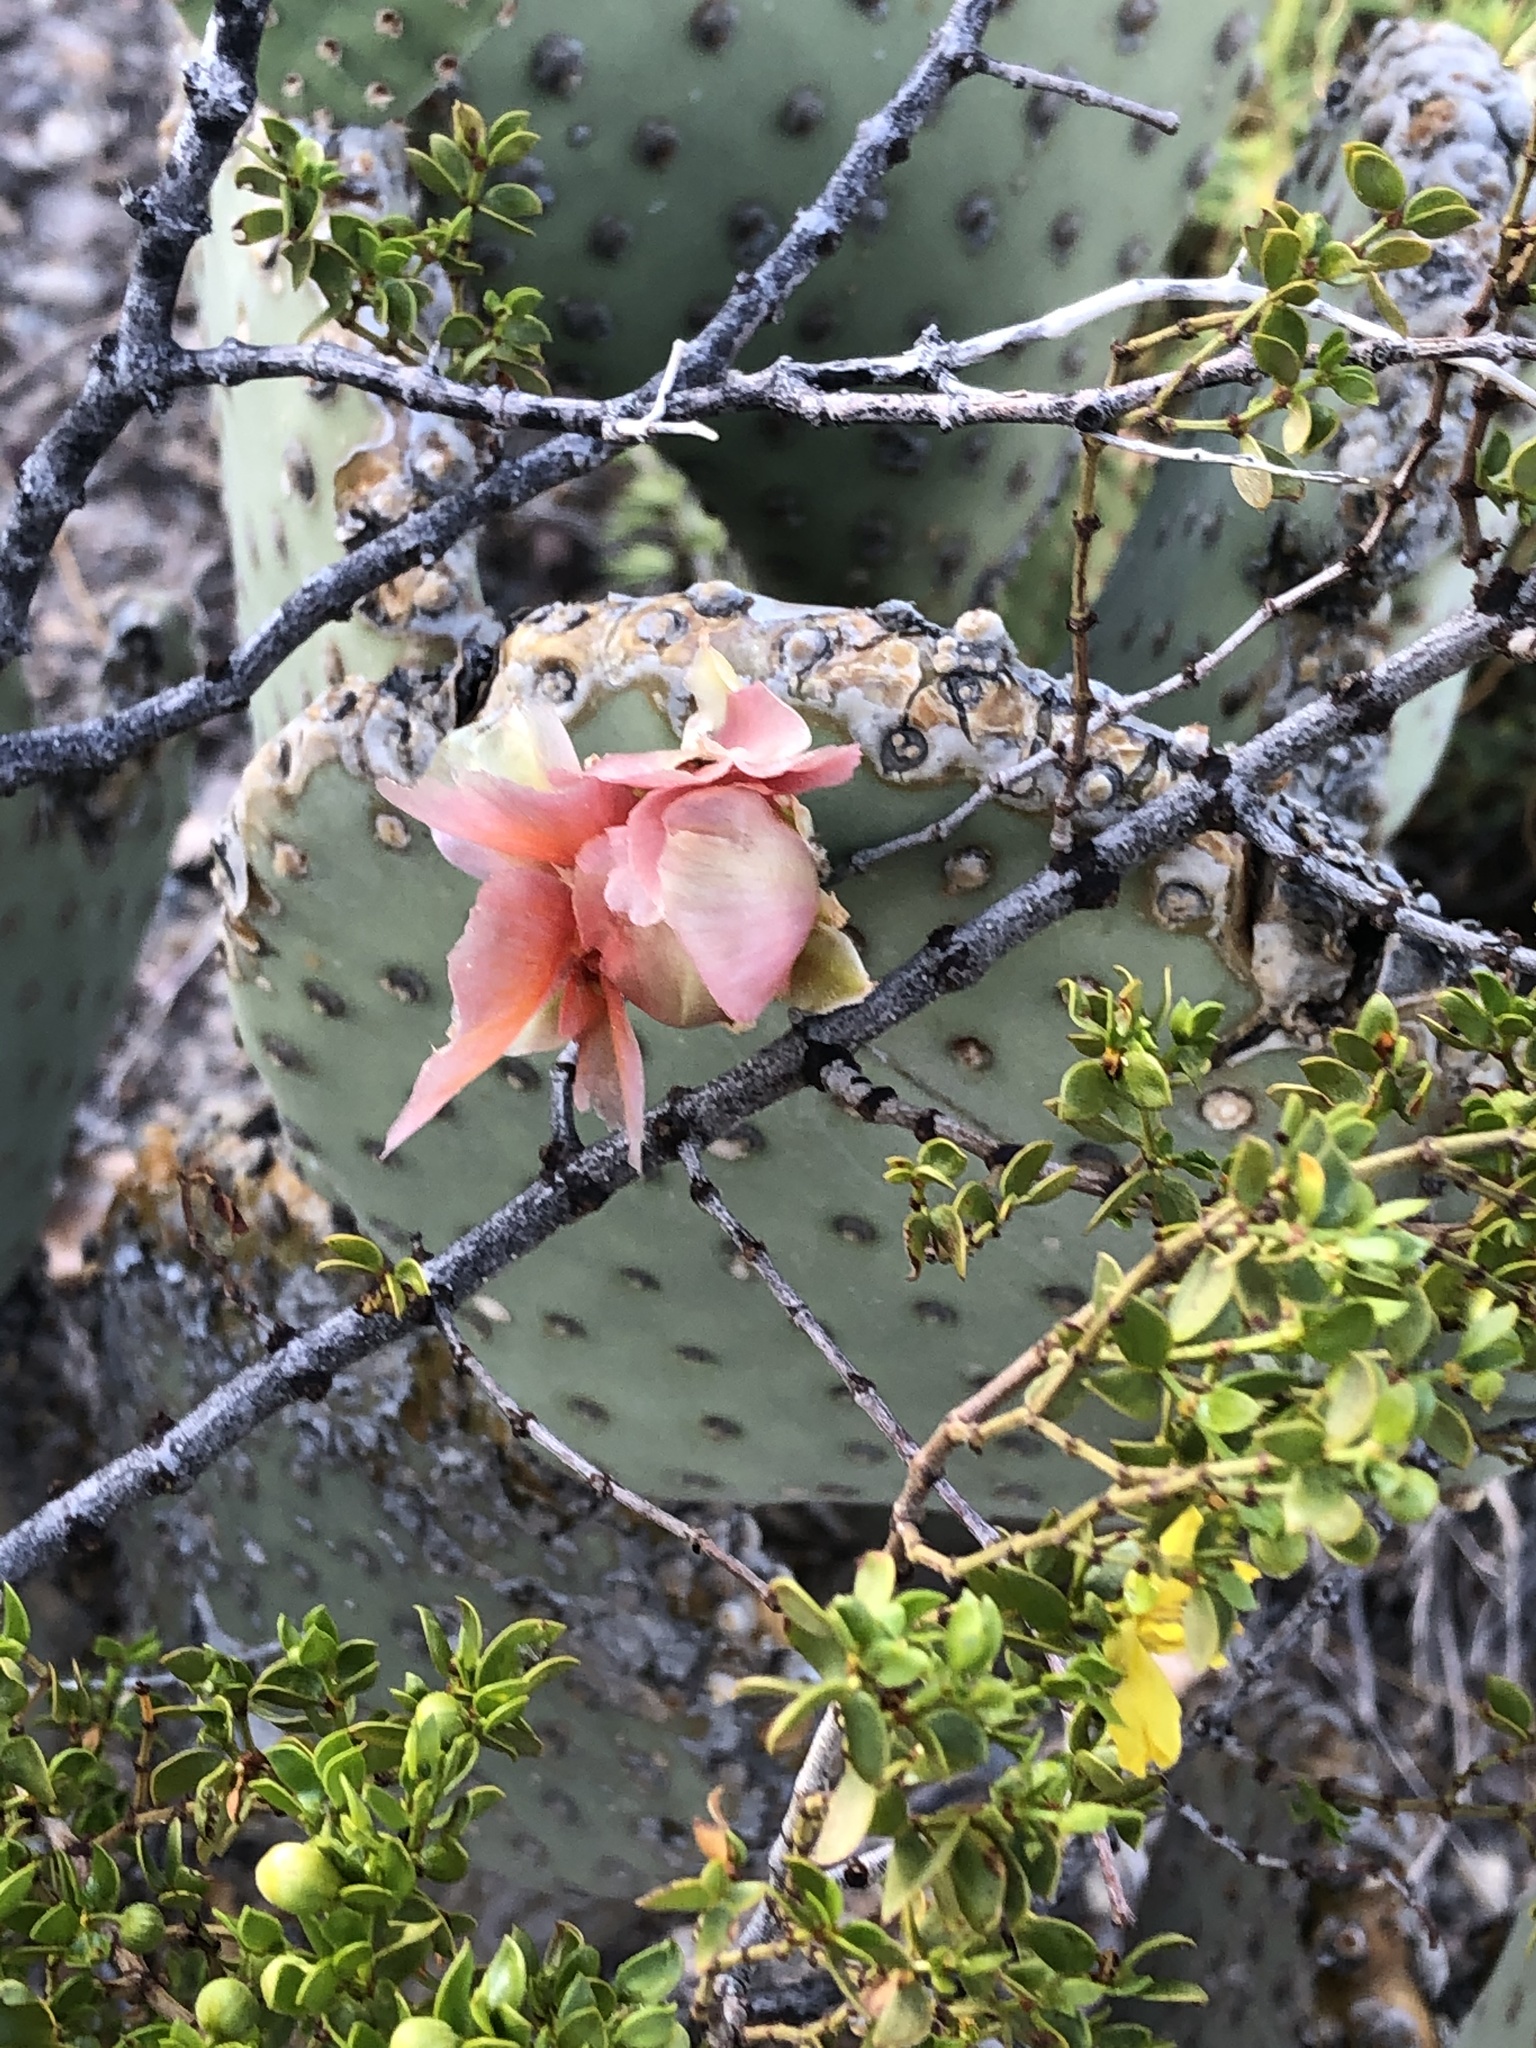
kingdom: Plantae
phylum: Tracheophyta
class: Magnoliopsida
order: Caryophyllales
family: Cactaceae
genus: Opuntia
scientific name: Opuntia rufida
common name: Blind pricklypear
